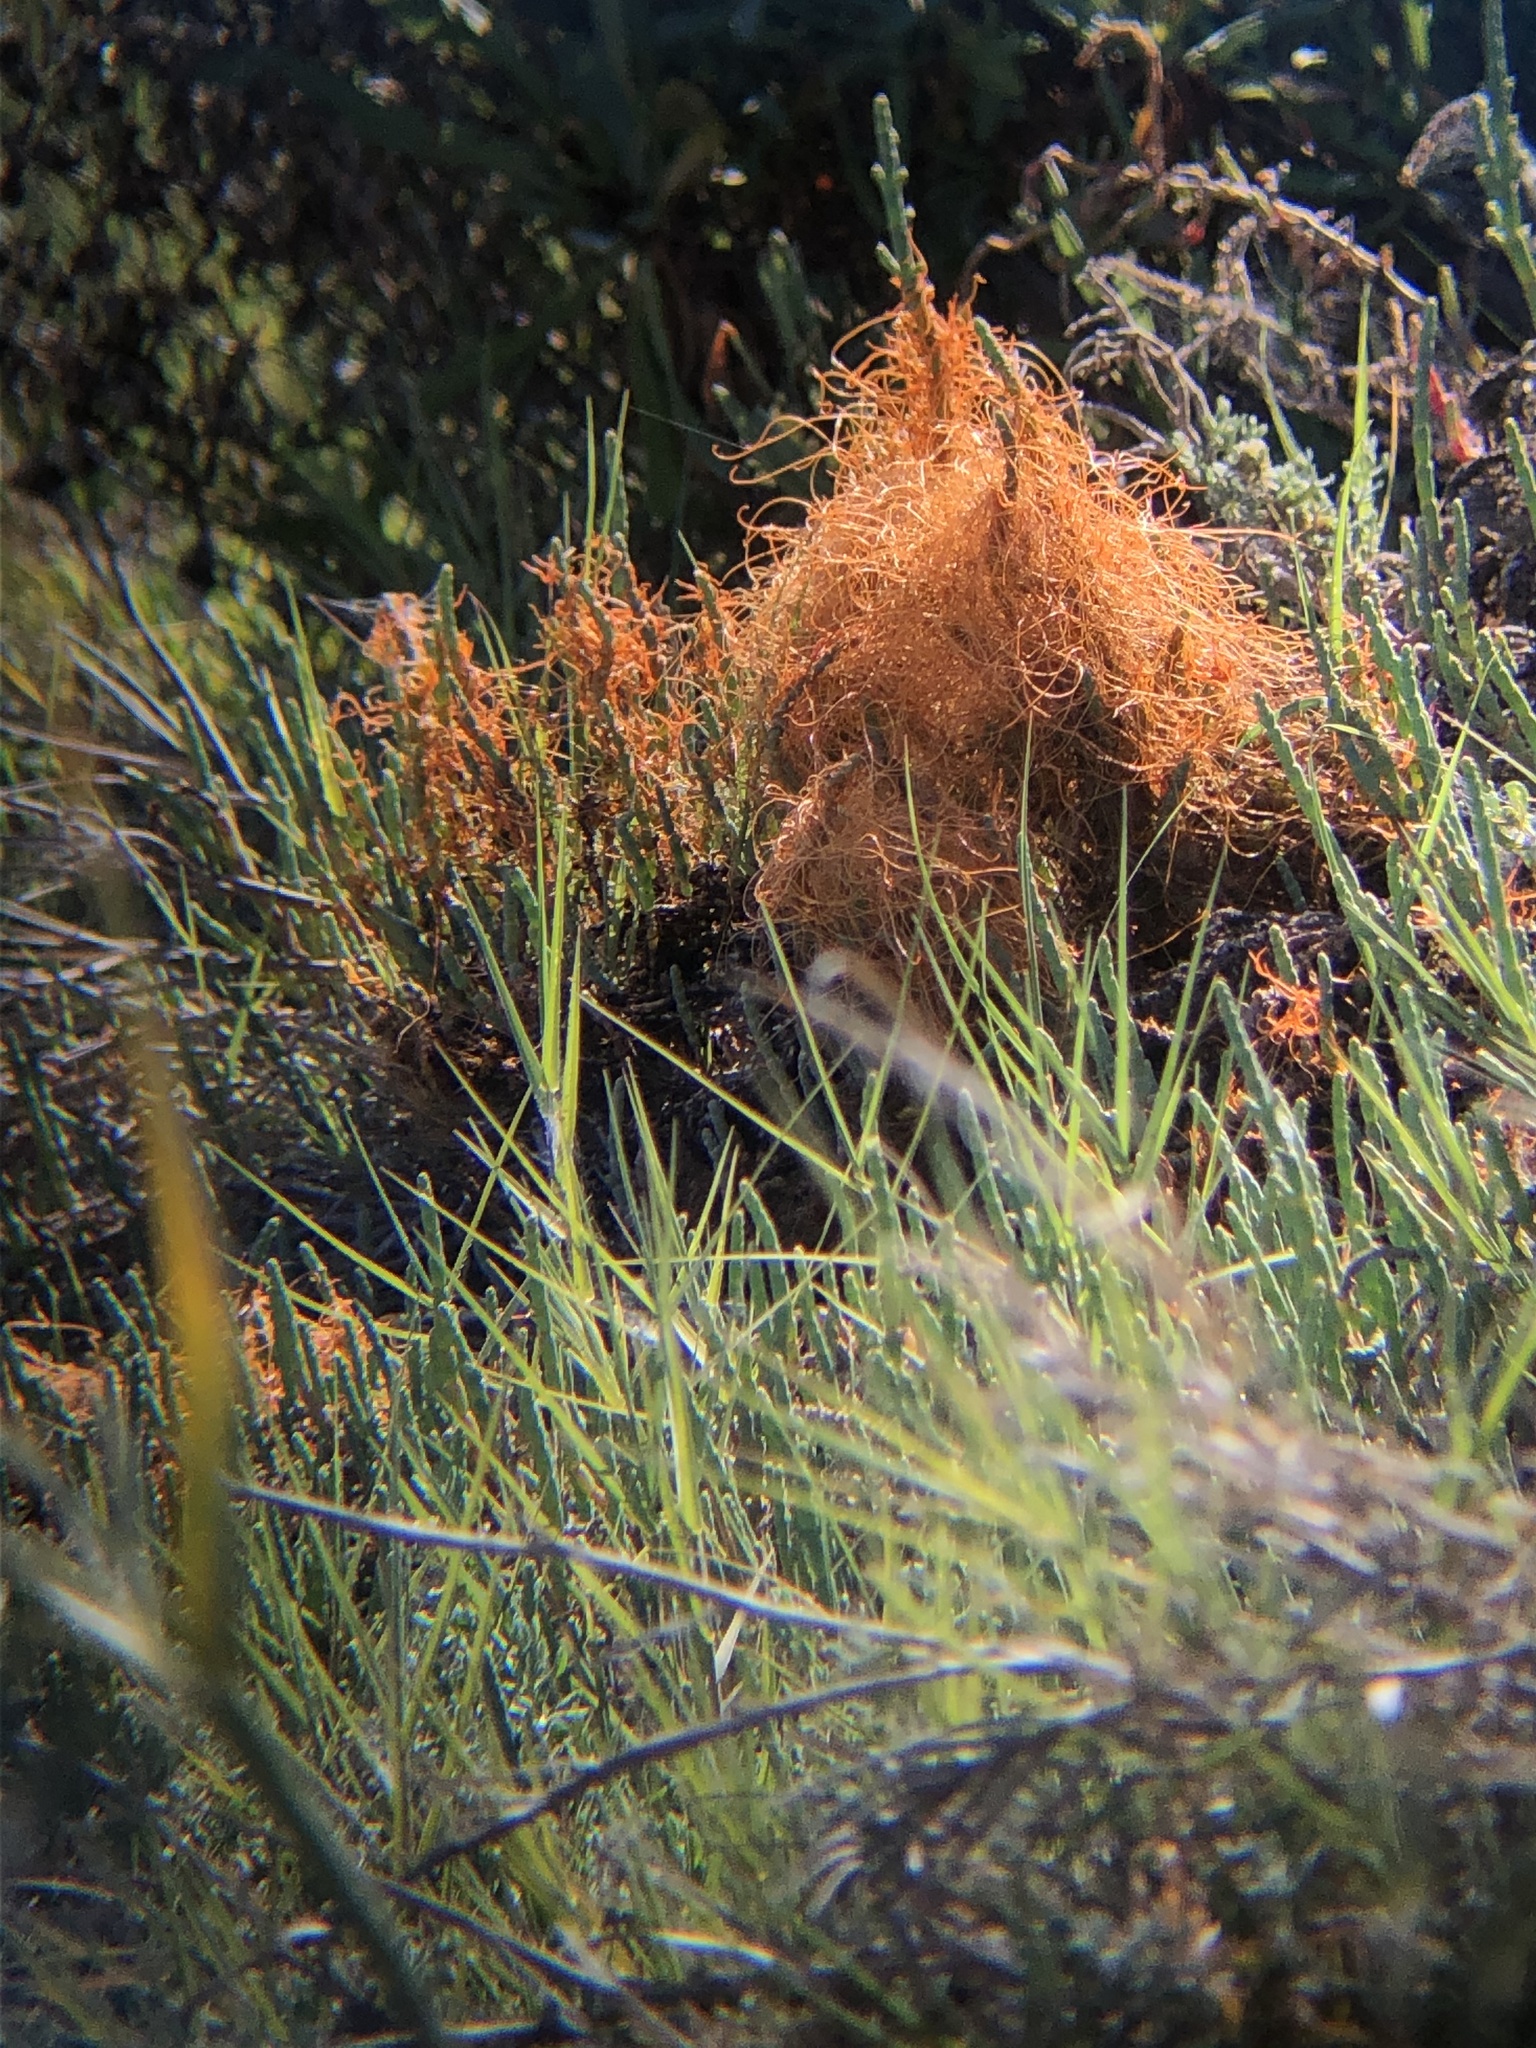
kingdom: Plantae
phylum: Tracheophyta
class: Magnoliopsida
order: Solanales
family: Convolvulaceae
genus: Cuscuta
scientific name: Cuscuta pacifica
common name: Large saltmarsh dodder
